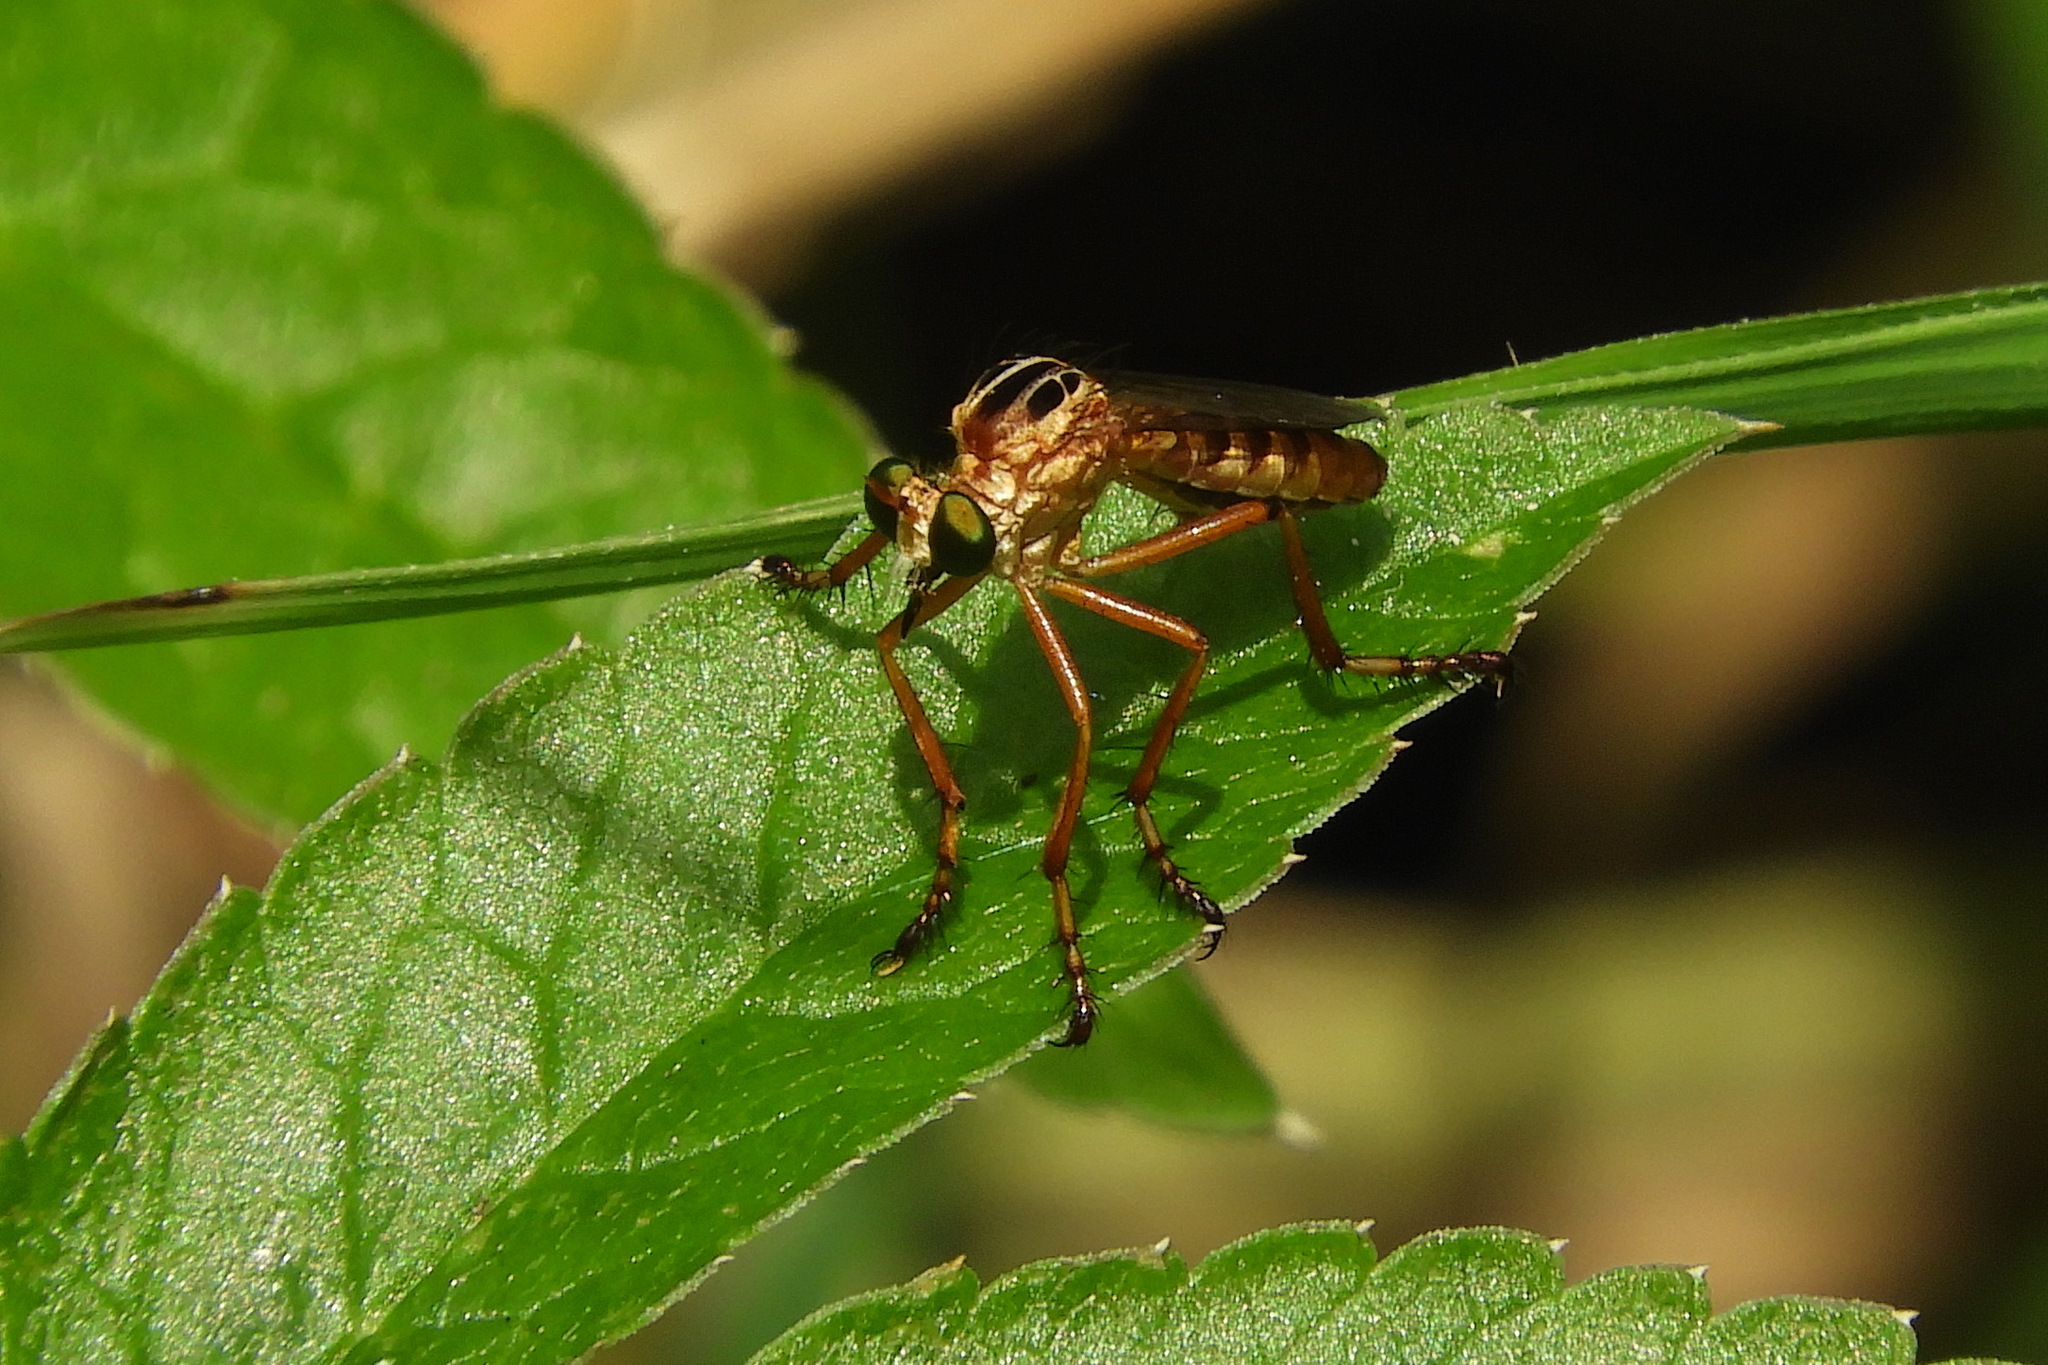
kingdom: Animalia
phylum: Arthropoda
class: Insecta
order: Diptera
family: Asilidae
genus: Diogmites
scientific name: Diogmites misellus
